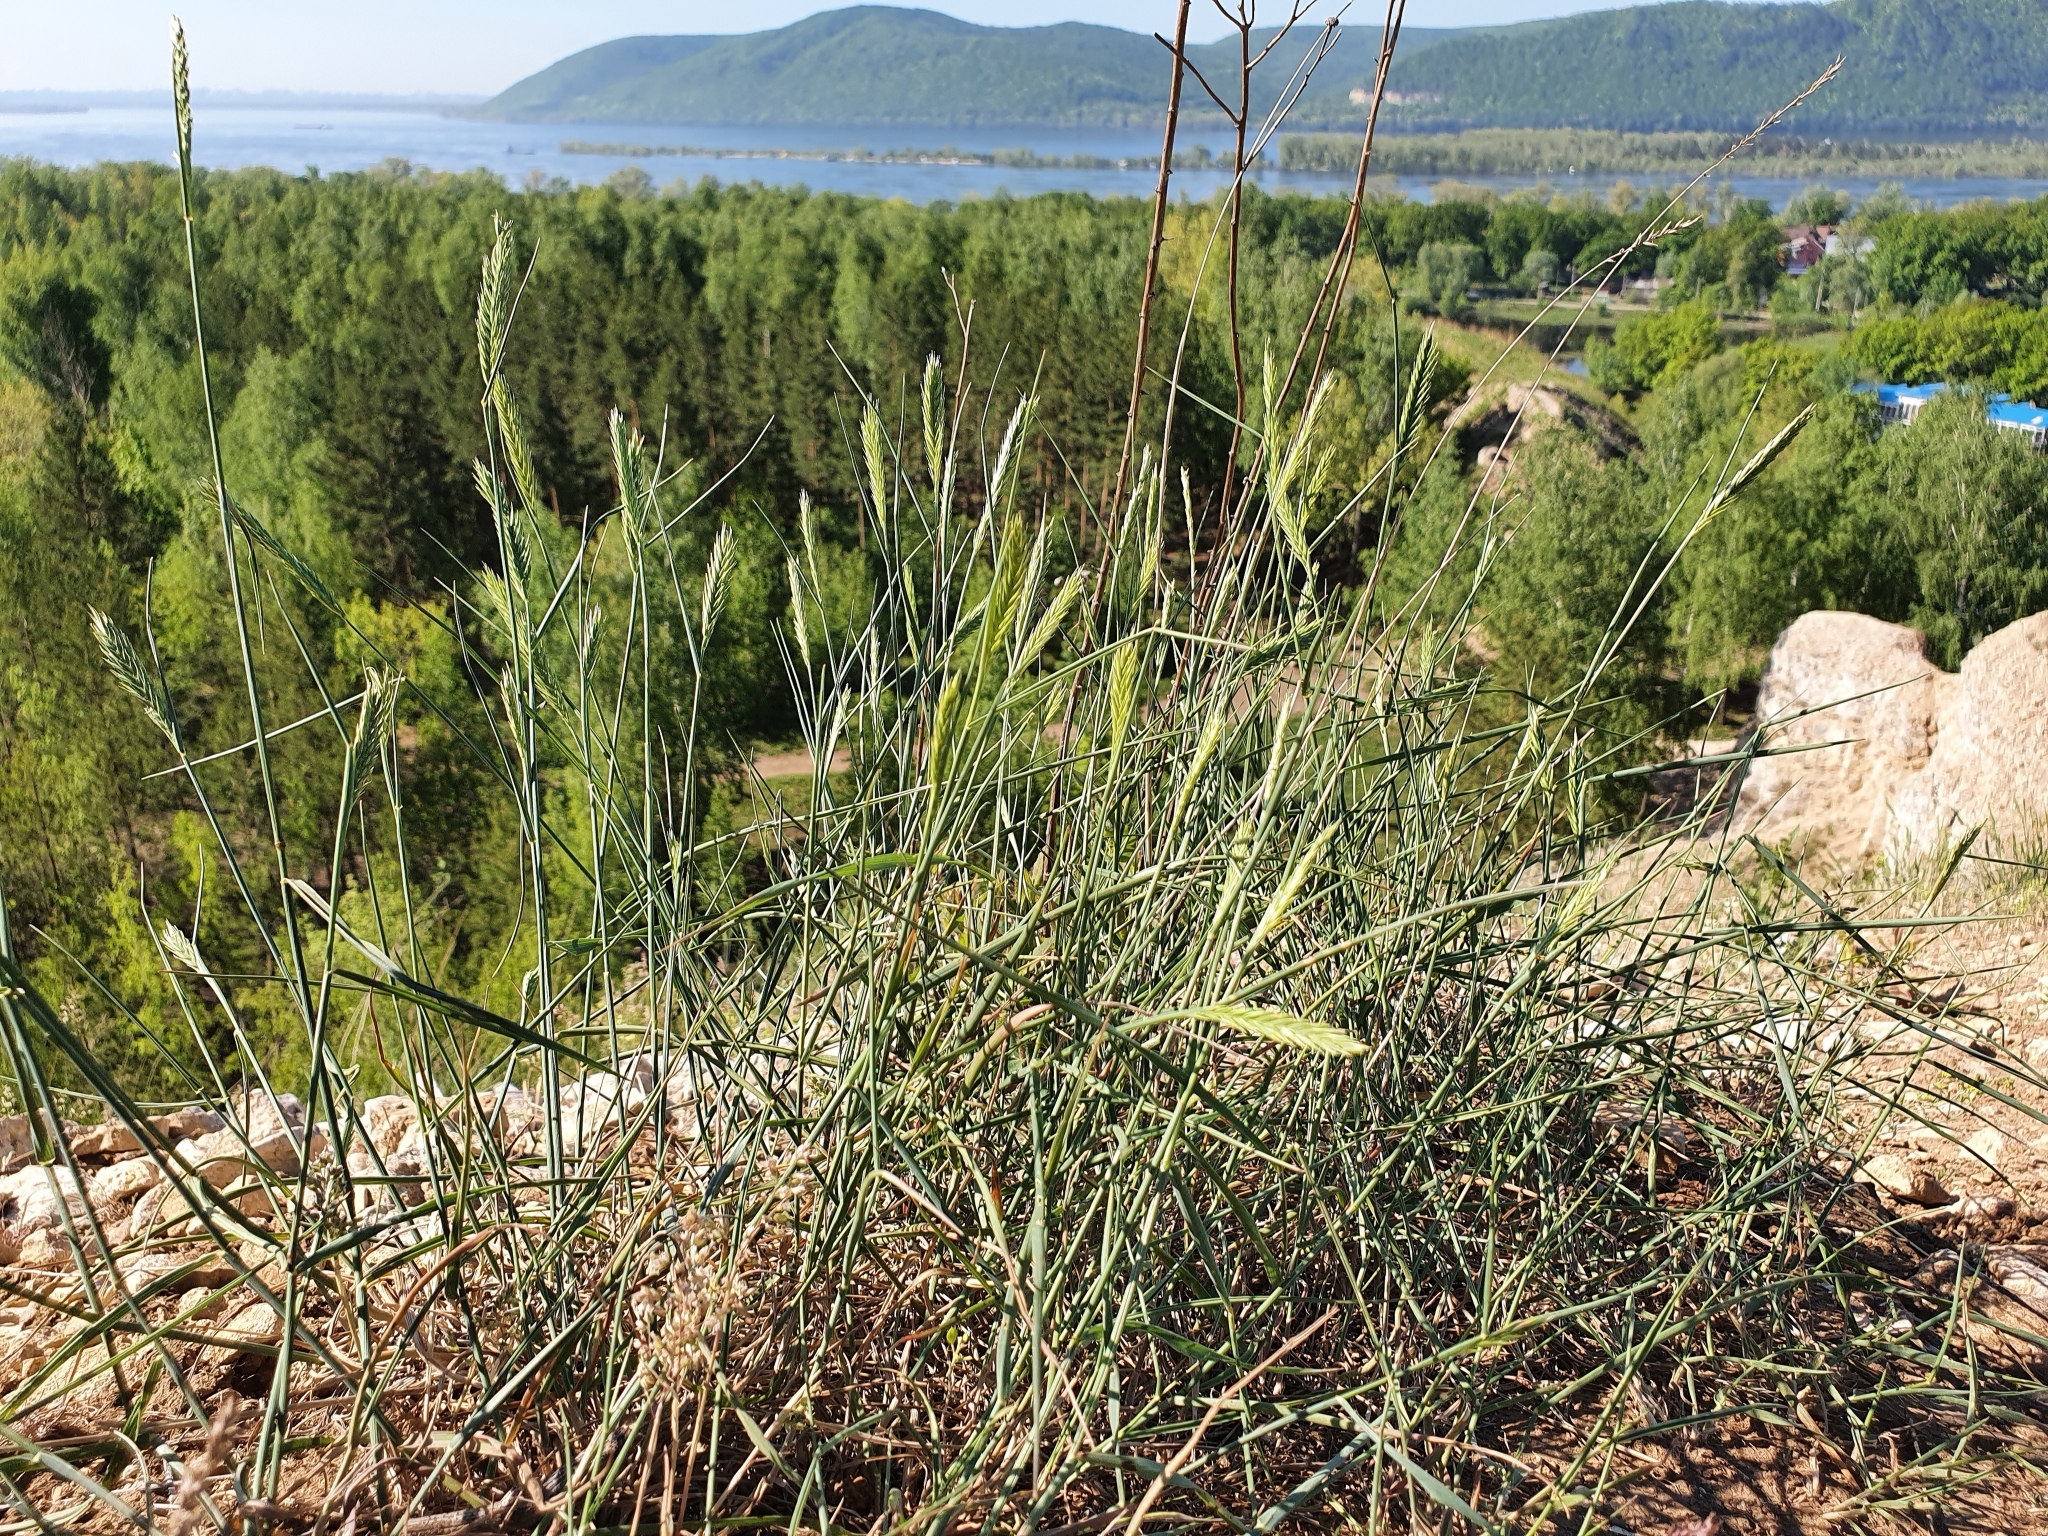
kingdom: Plantae
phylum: Tracheophyta
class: Liliopsida
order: Poales
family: Poaceae
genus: Agropyron
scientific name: Agropyron desertorum
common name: Desert wheatgrass
